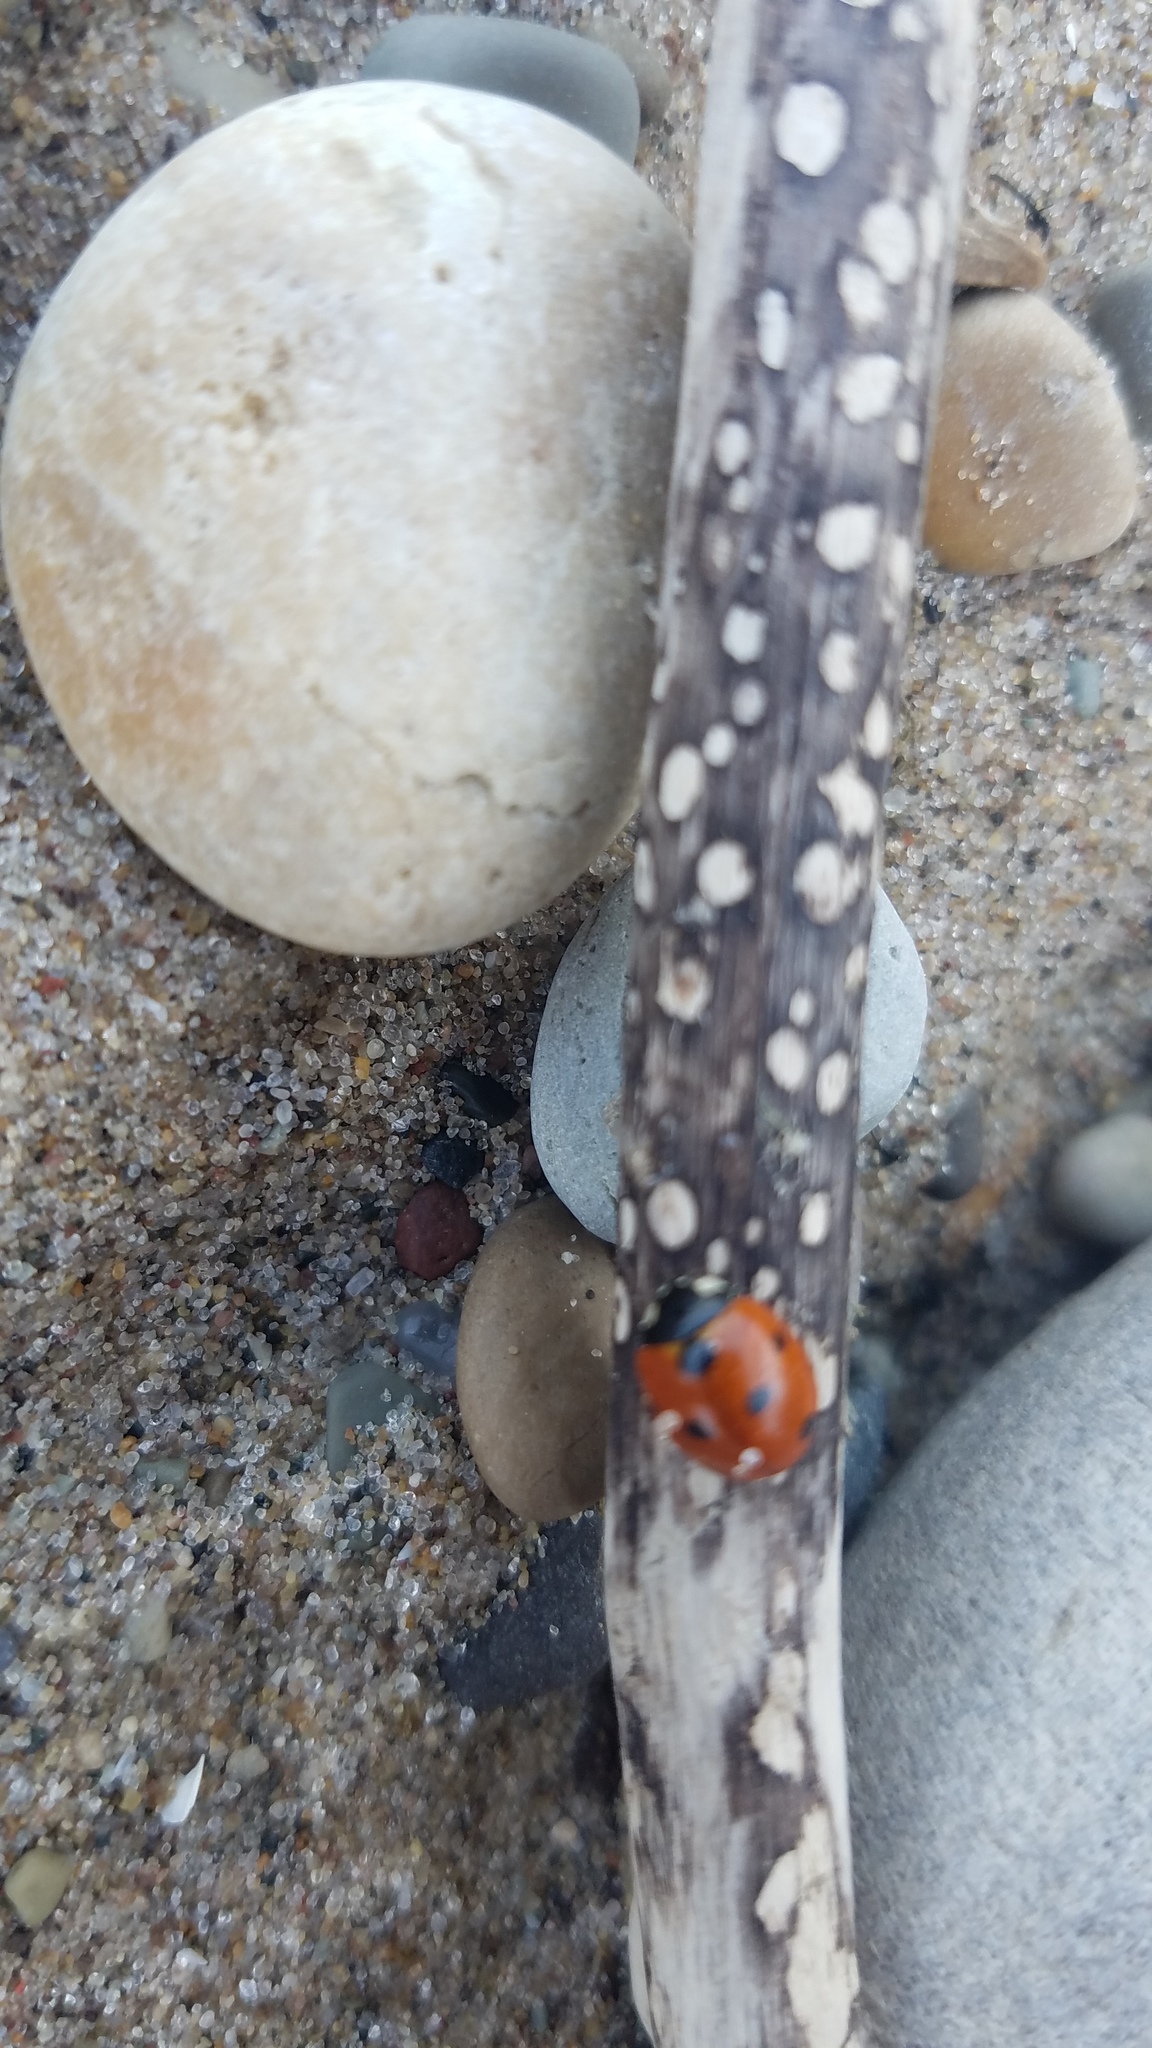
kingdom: Animalia
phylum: Arthropoda
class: Insecta
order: Coleoptera
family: Coccinellidae
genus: Coccinella
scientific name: Coccinella septempunctata
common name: Sevenspotted lady beetle
